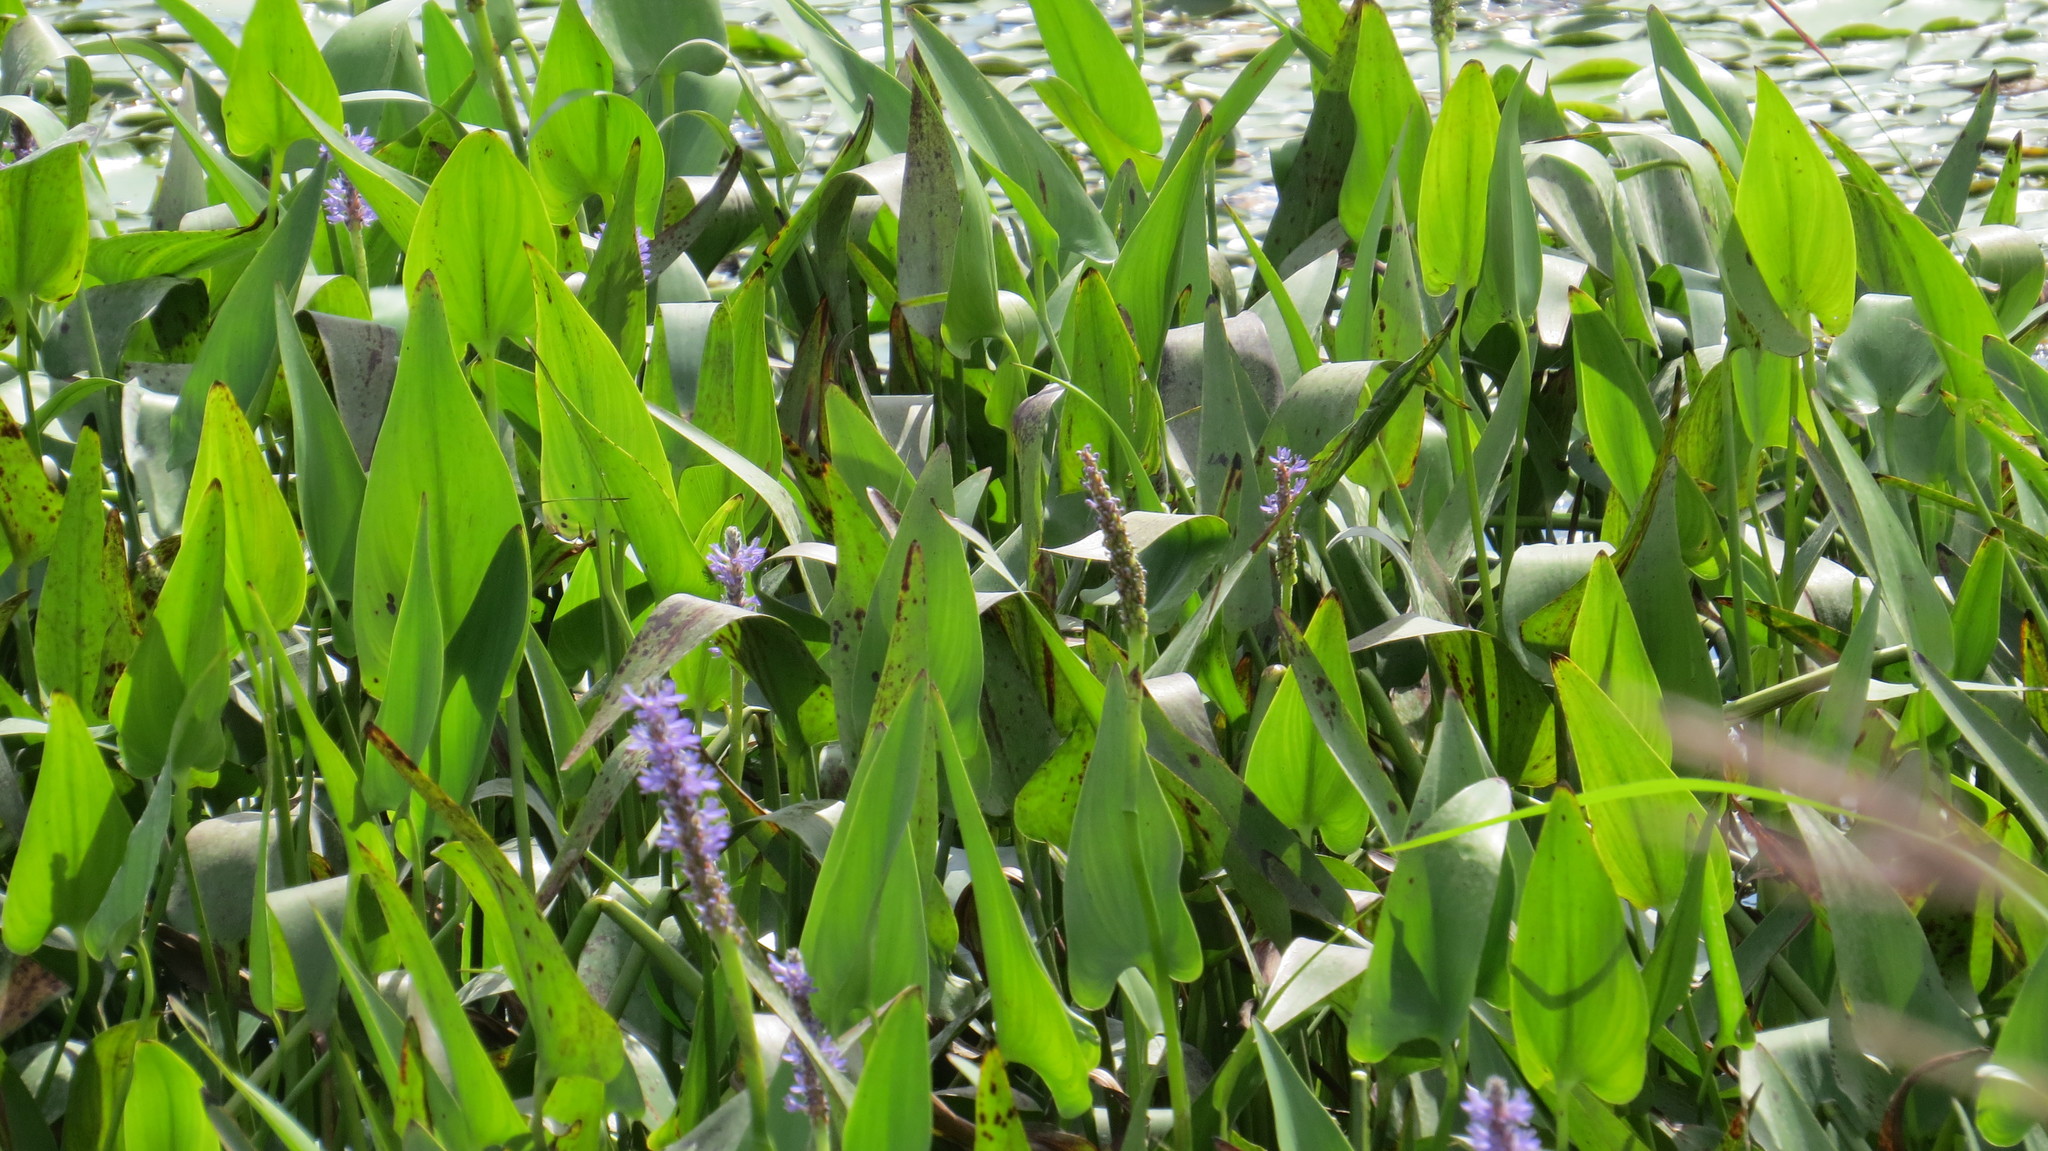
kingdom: Plantae
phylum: Tracheophyta
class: Liliopsida
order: Commelinales
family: Pontederiaceae
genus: Pontederia
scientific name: Pontederia cordata
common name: Pickerelweed
